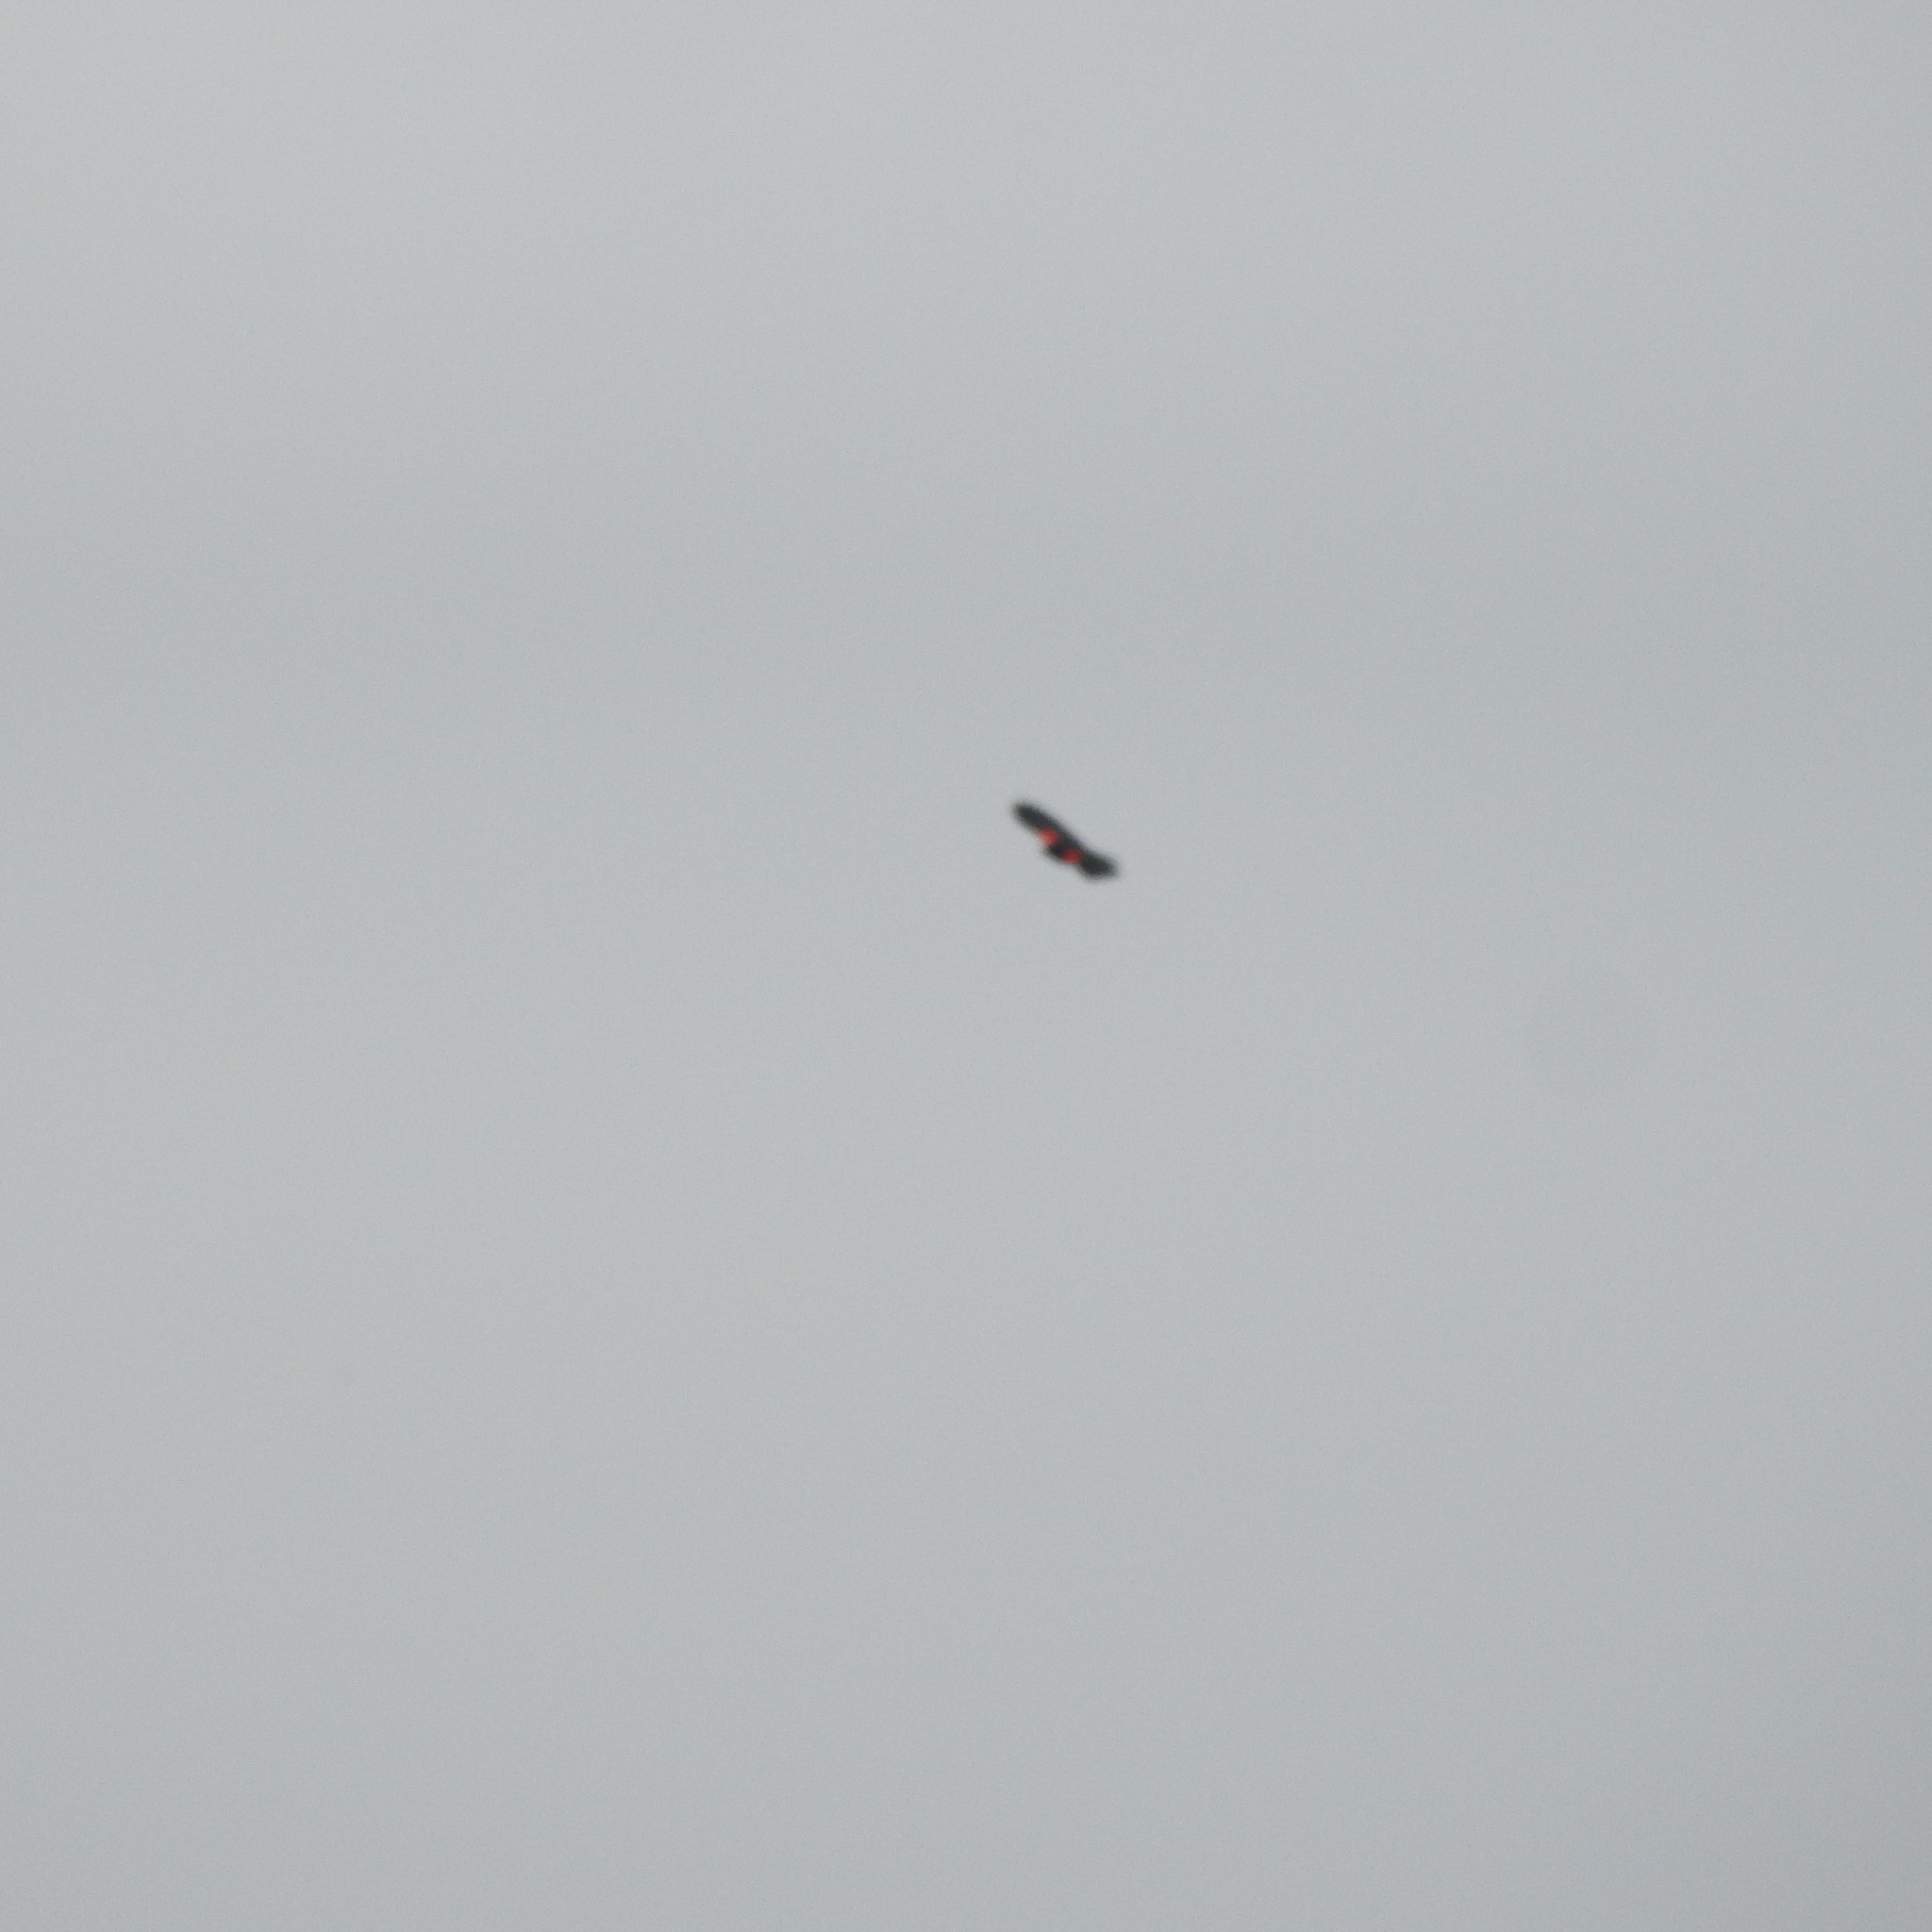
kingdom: Animalia
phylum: Chordata
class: Aves
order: Passeriformes
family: Icteridae
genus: Agelaius
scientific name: Agelaius phoeniceus
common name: Red-winged blackbird
